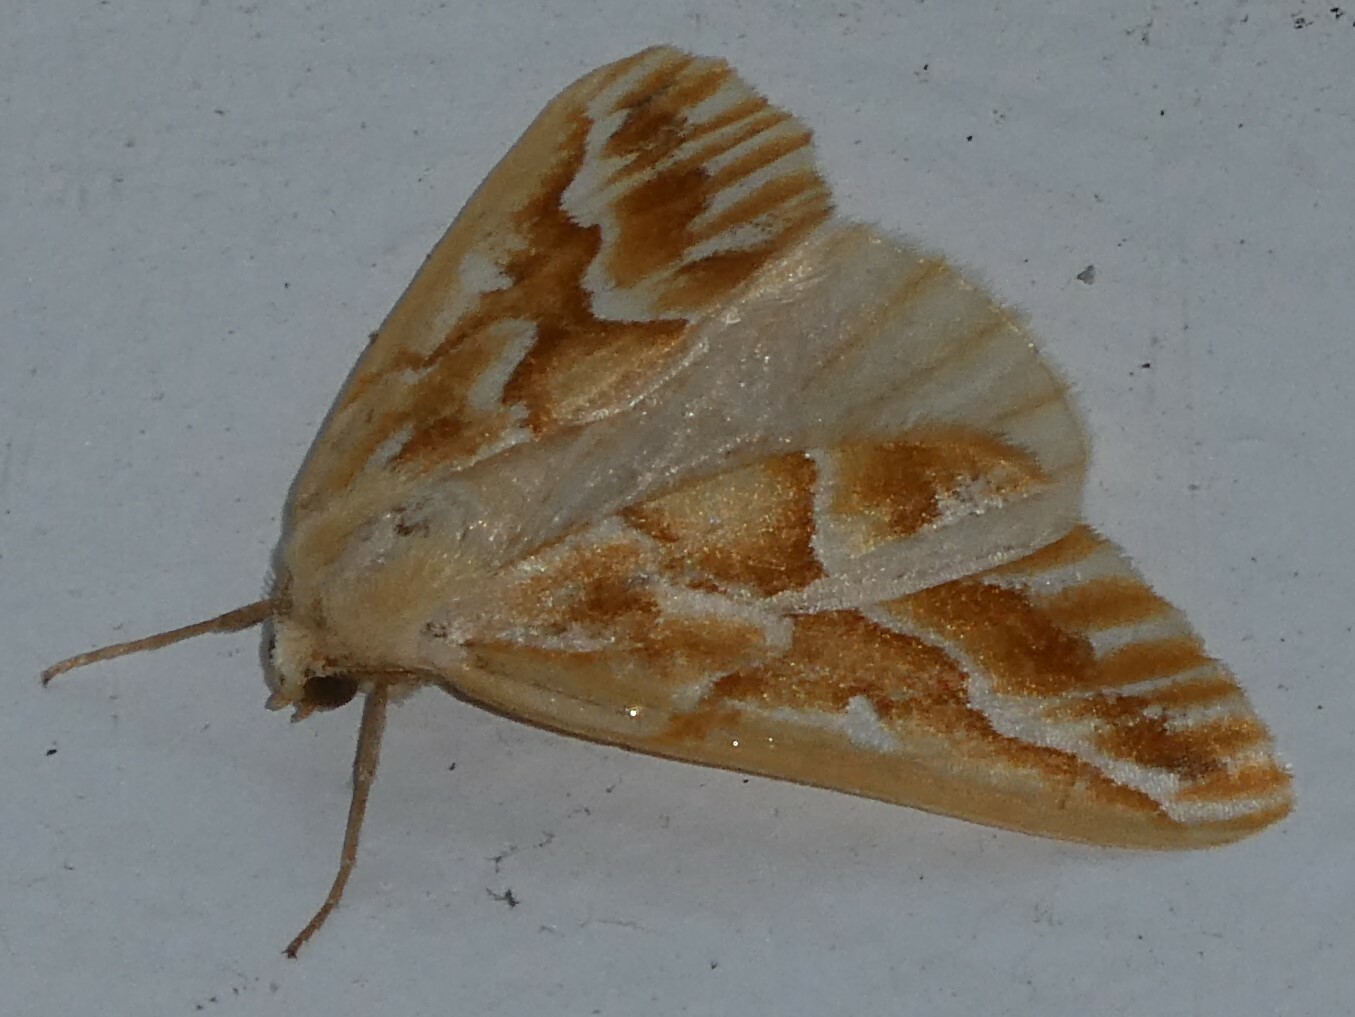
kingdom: Animalia
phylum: Arthropoda
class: Insecta
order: Lepidoptera
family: Geometridae
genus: Caripeta
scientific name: Caripeta piniata
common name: Northern pine looper moth
